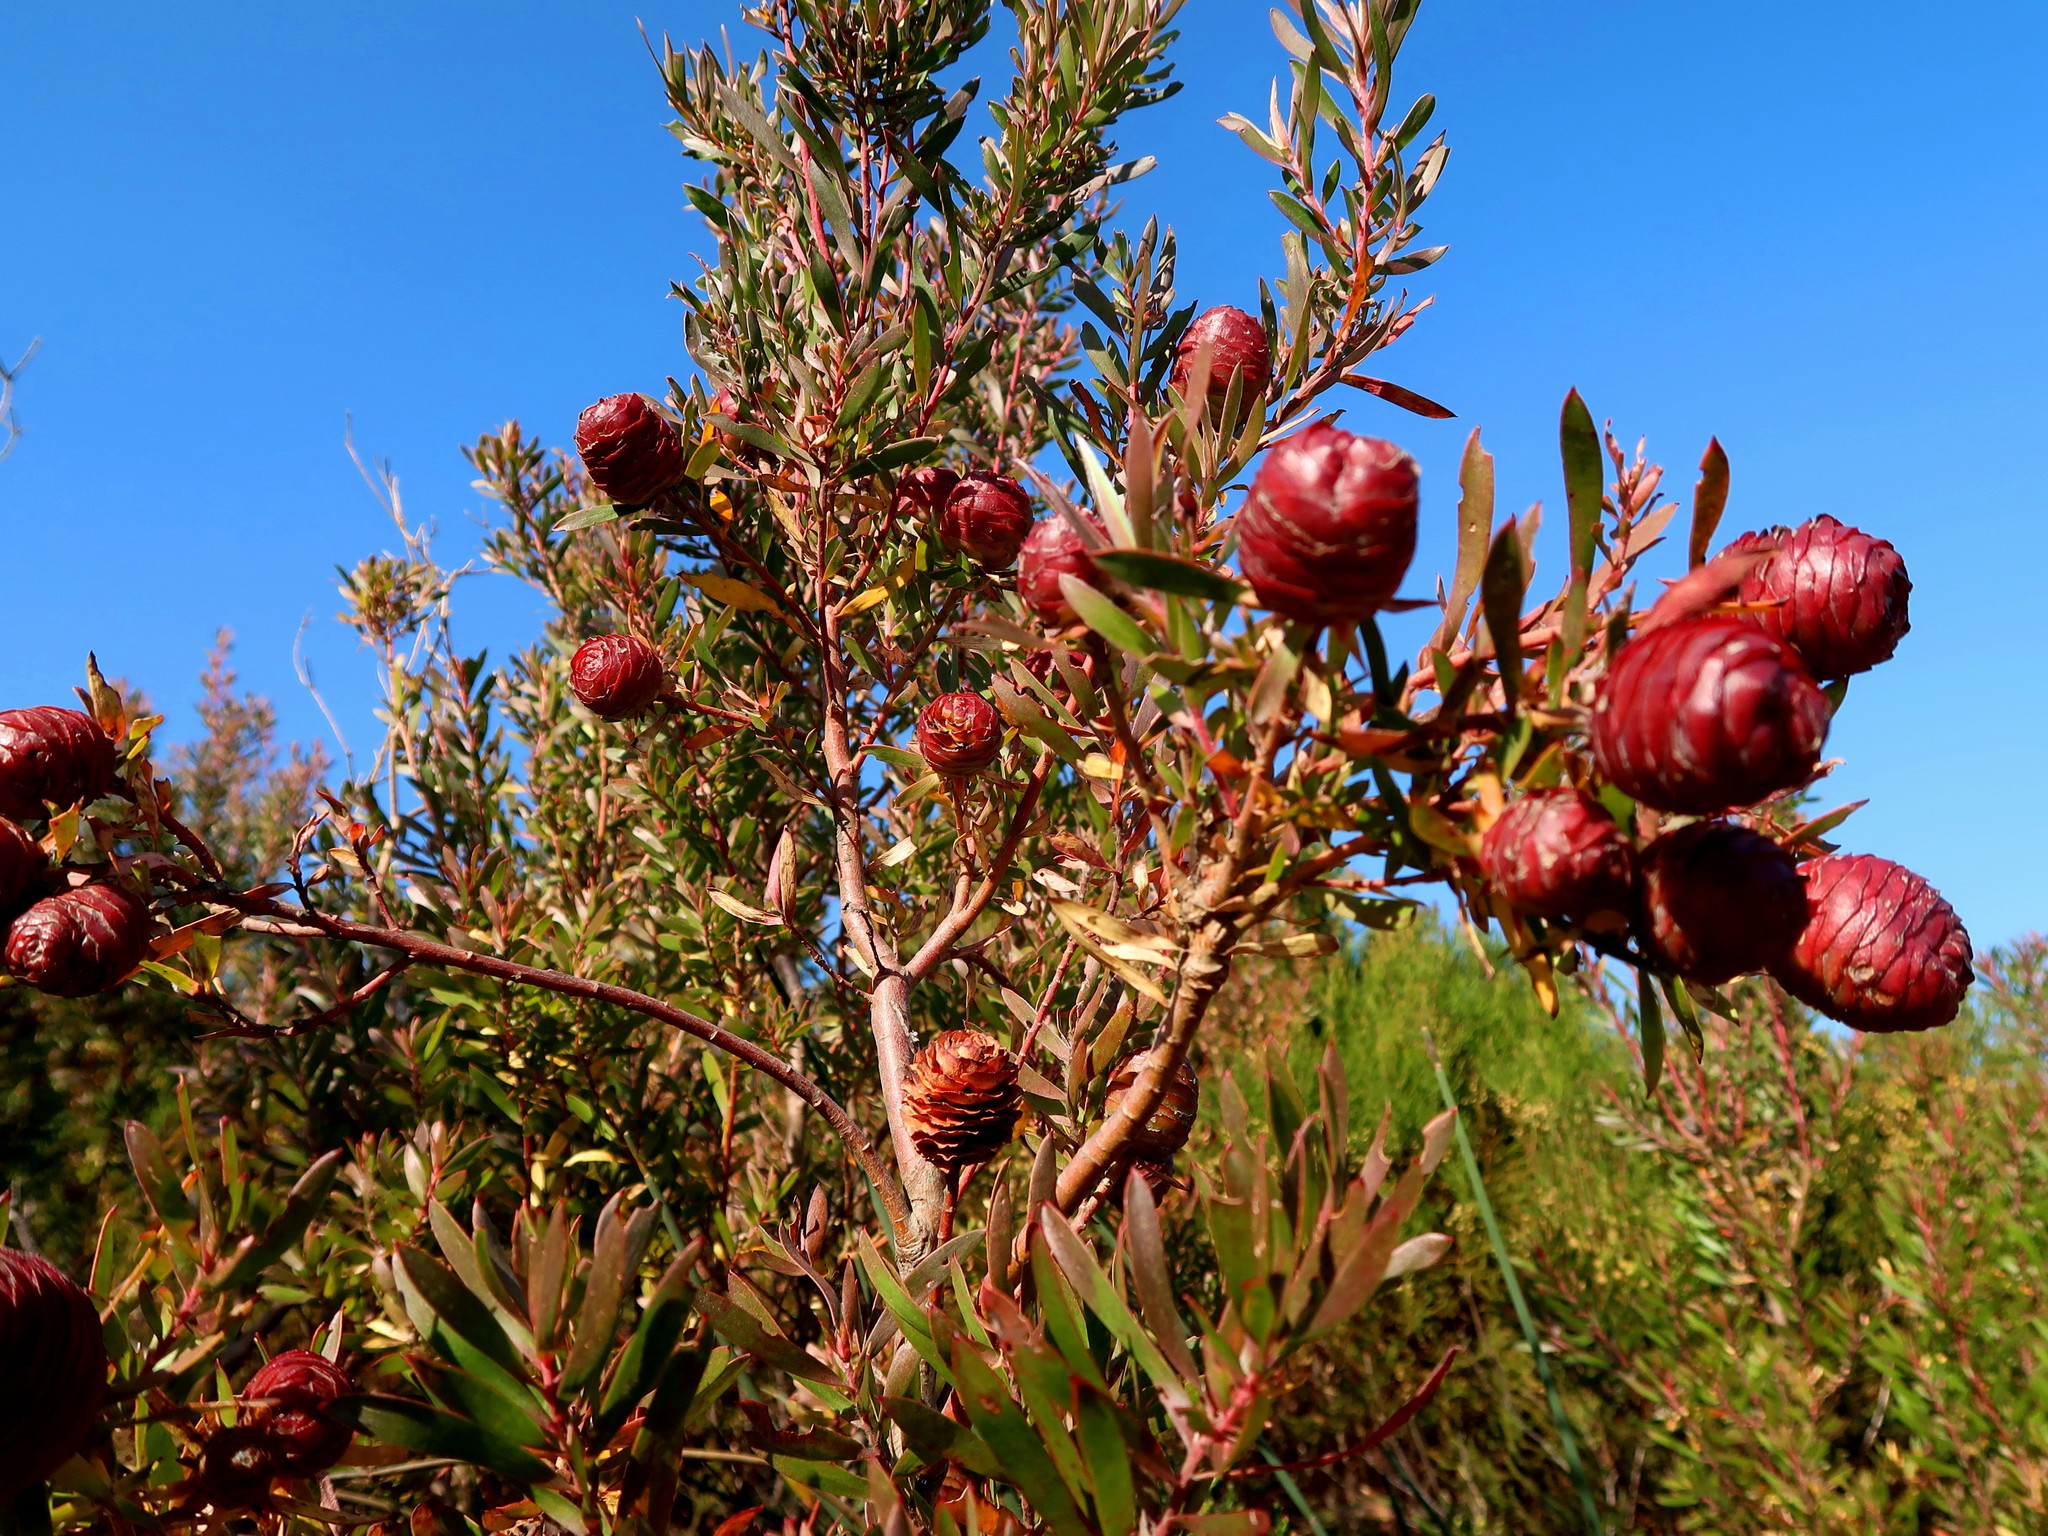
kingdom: Plantae
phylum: Tracheophyta
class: Magnoliopsida
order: Proteales
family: Proteaceae
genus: Leucadendron
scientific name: Leucadendron conicum
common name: Garden route conebush
